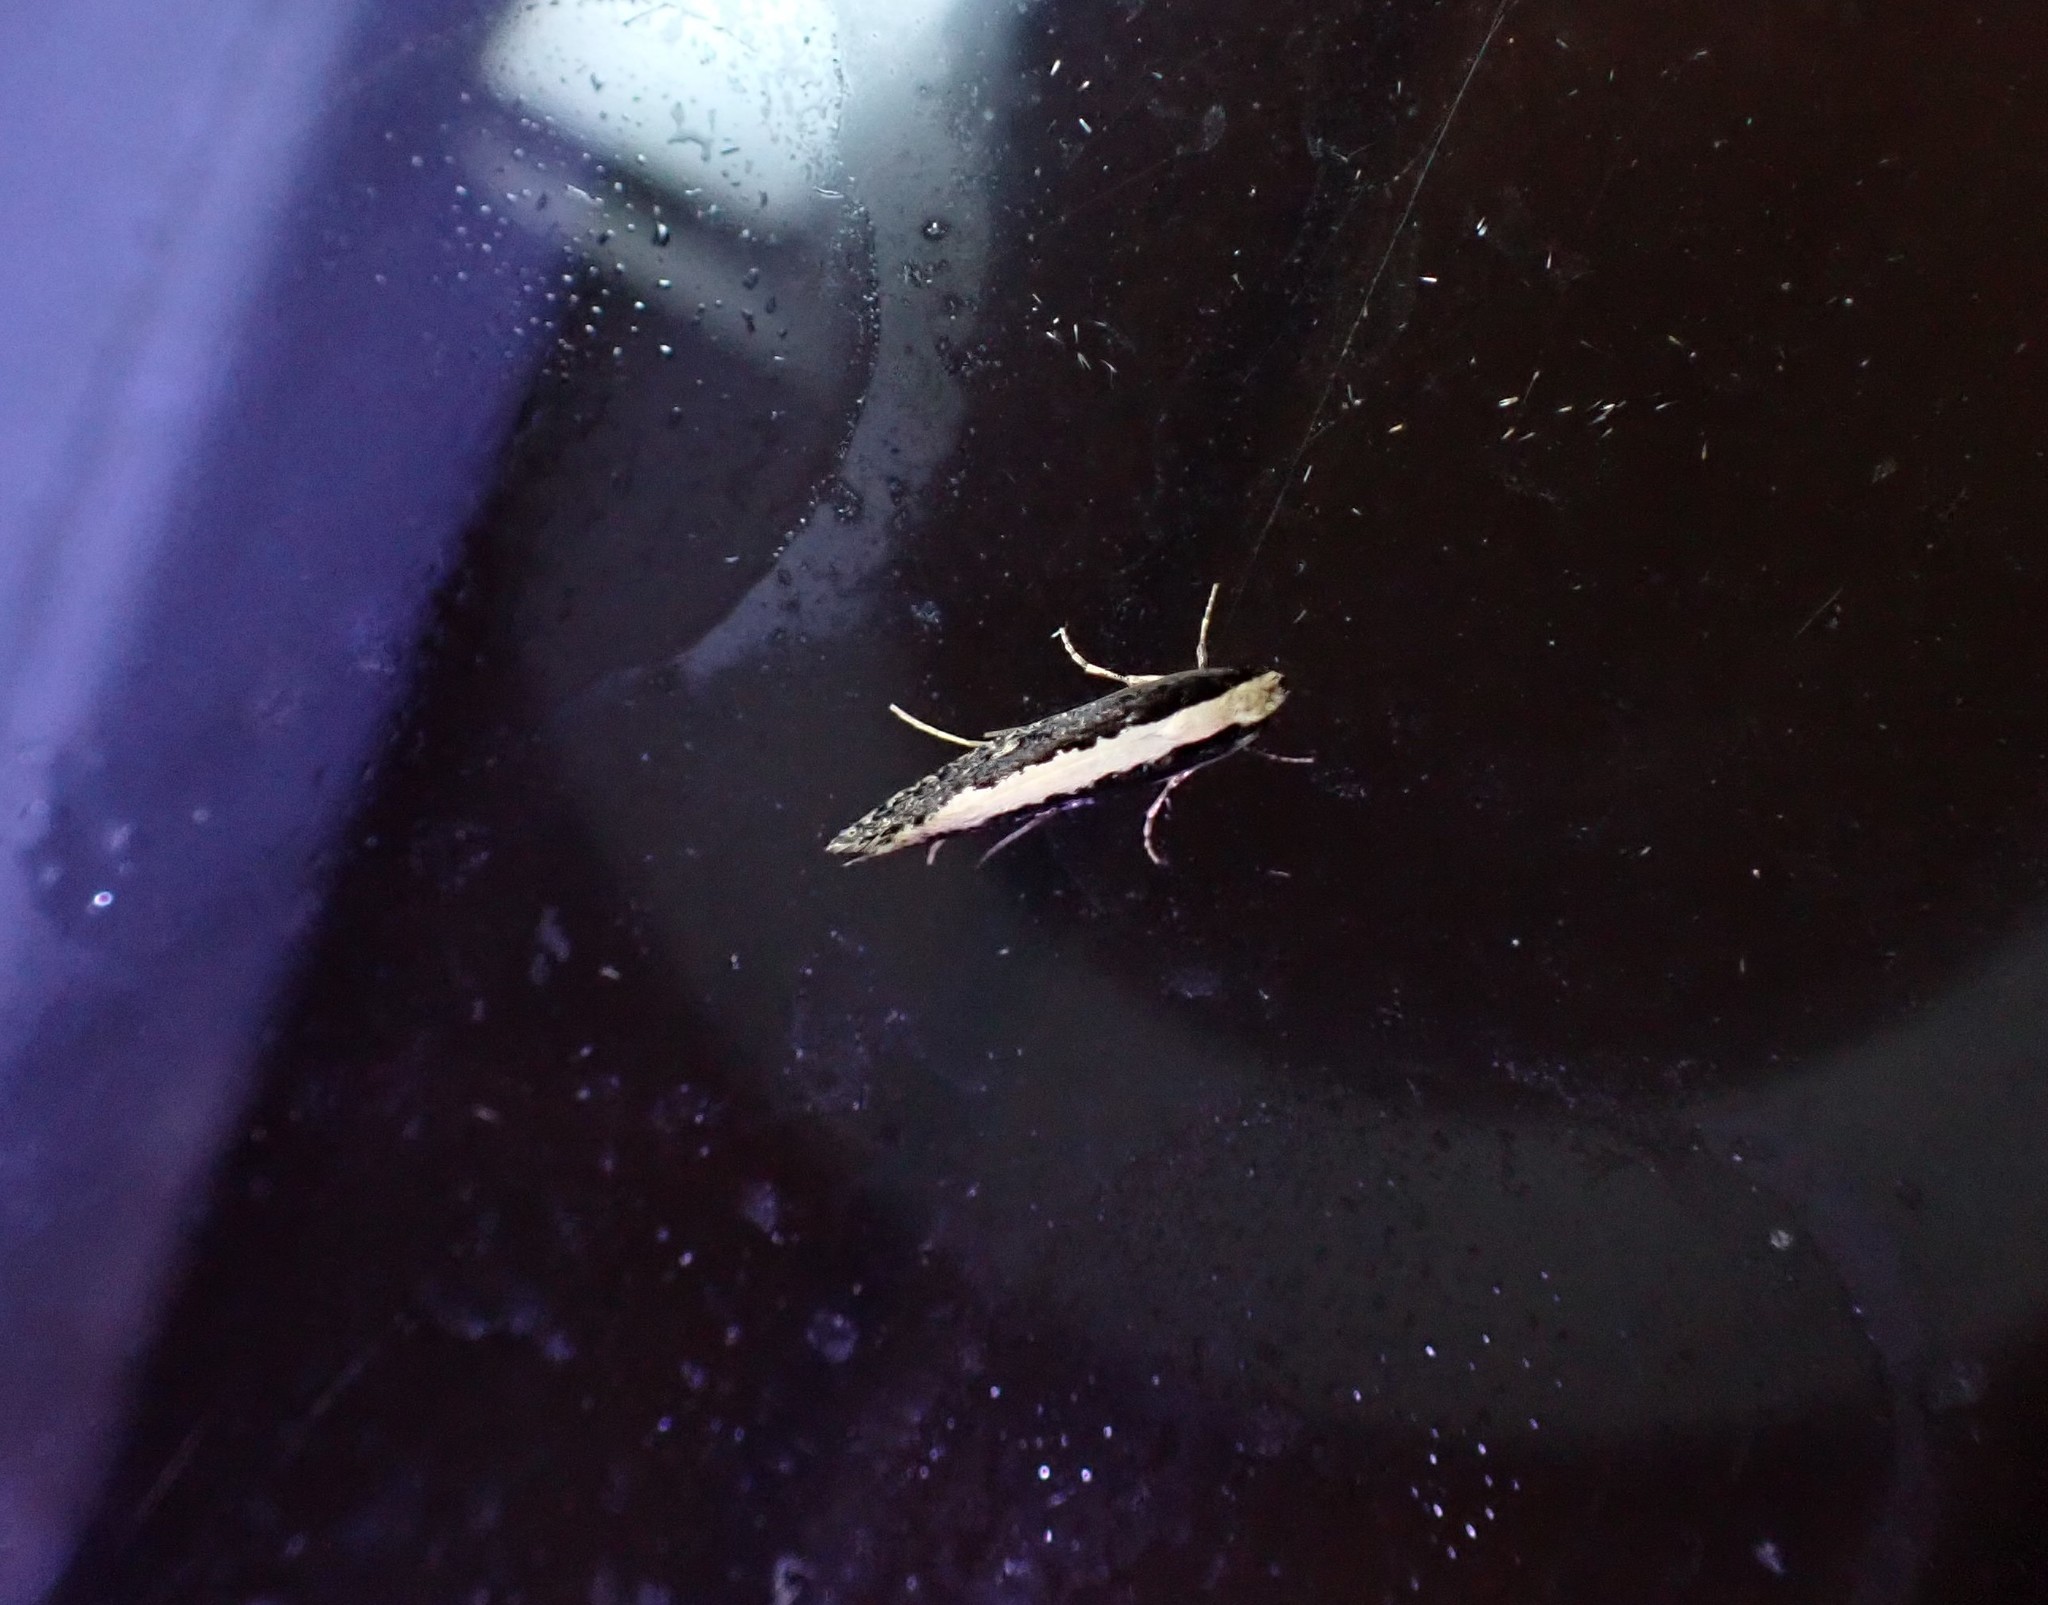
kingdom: Animalia
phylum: Arthropoda
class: Insecta
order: Lepidoptera
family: Tineidae
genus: Monopis
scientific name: Monopis ethelella
